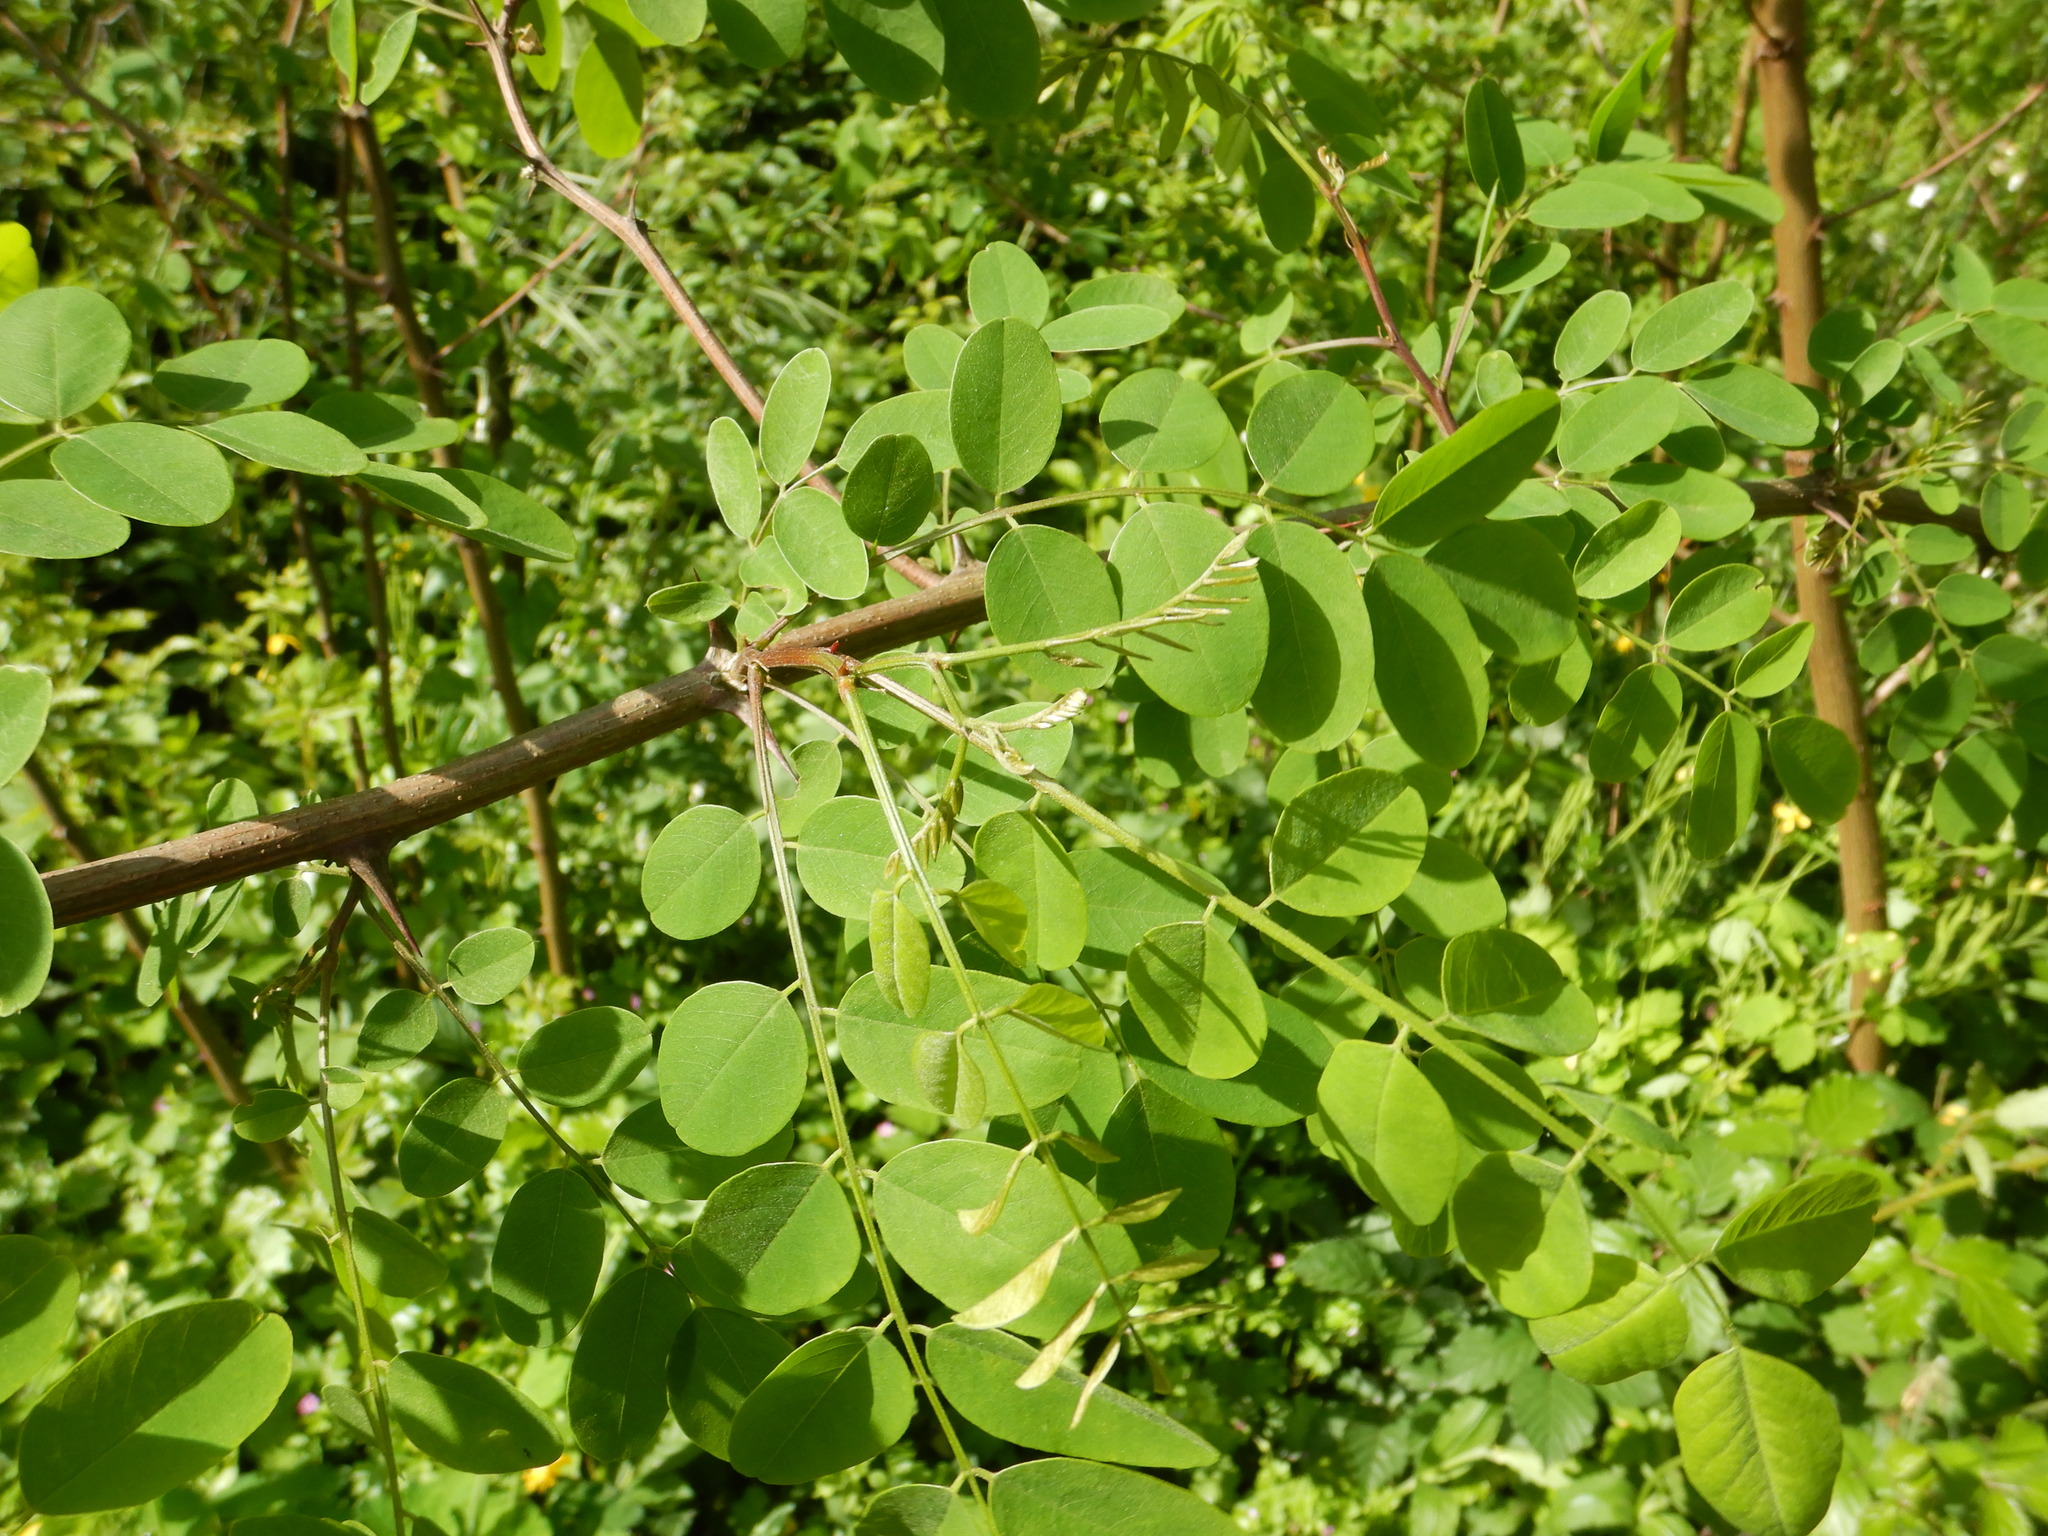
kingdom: Plantae
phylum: Tracheophyta
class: Magnoliopsida
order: Fabales
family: Fabaceae
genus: Robinia
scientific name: Robinia pseudoacacia
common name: Black locust
